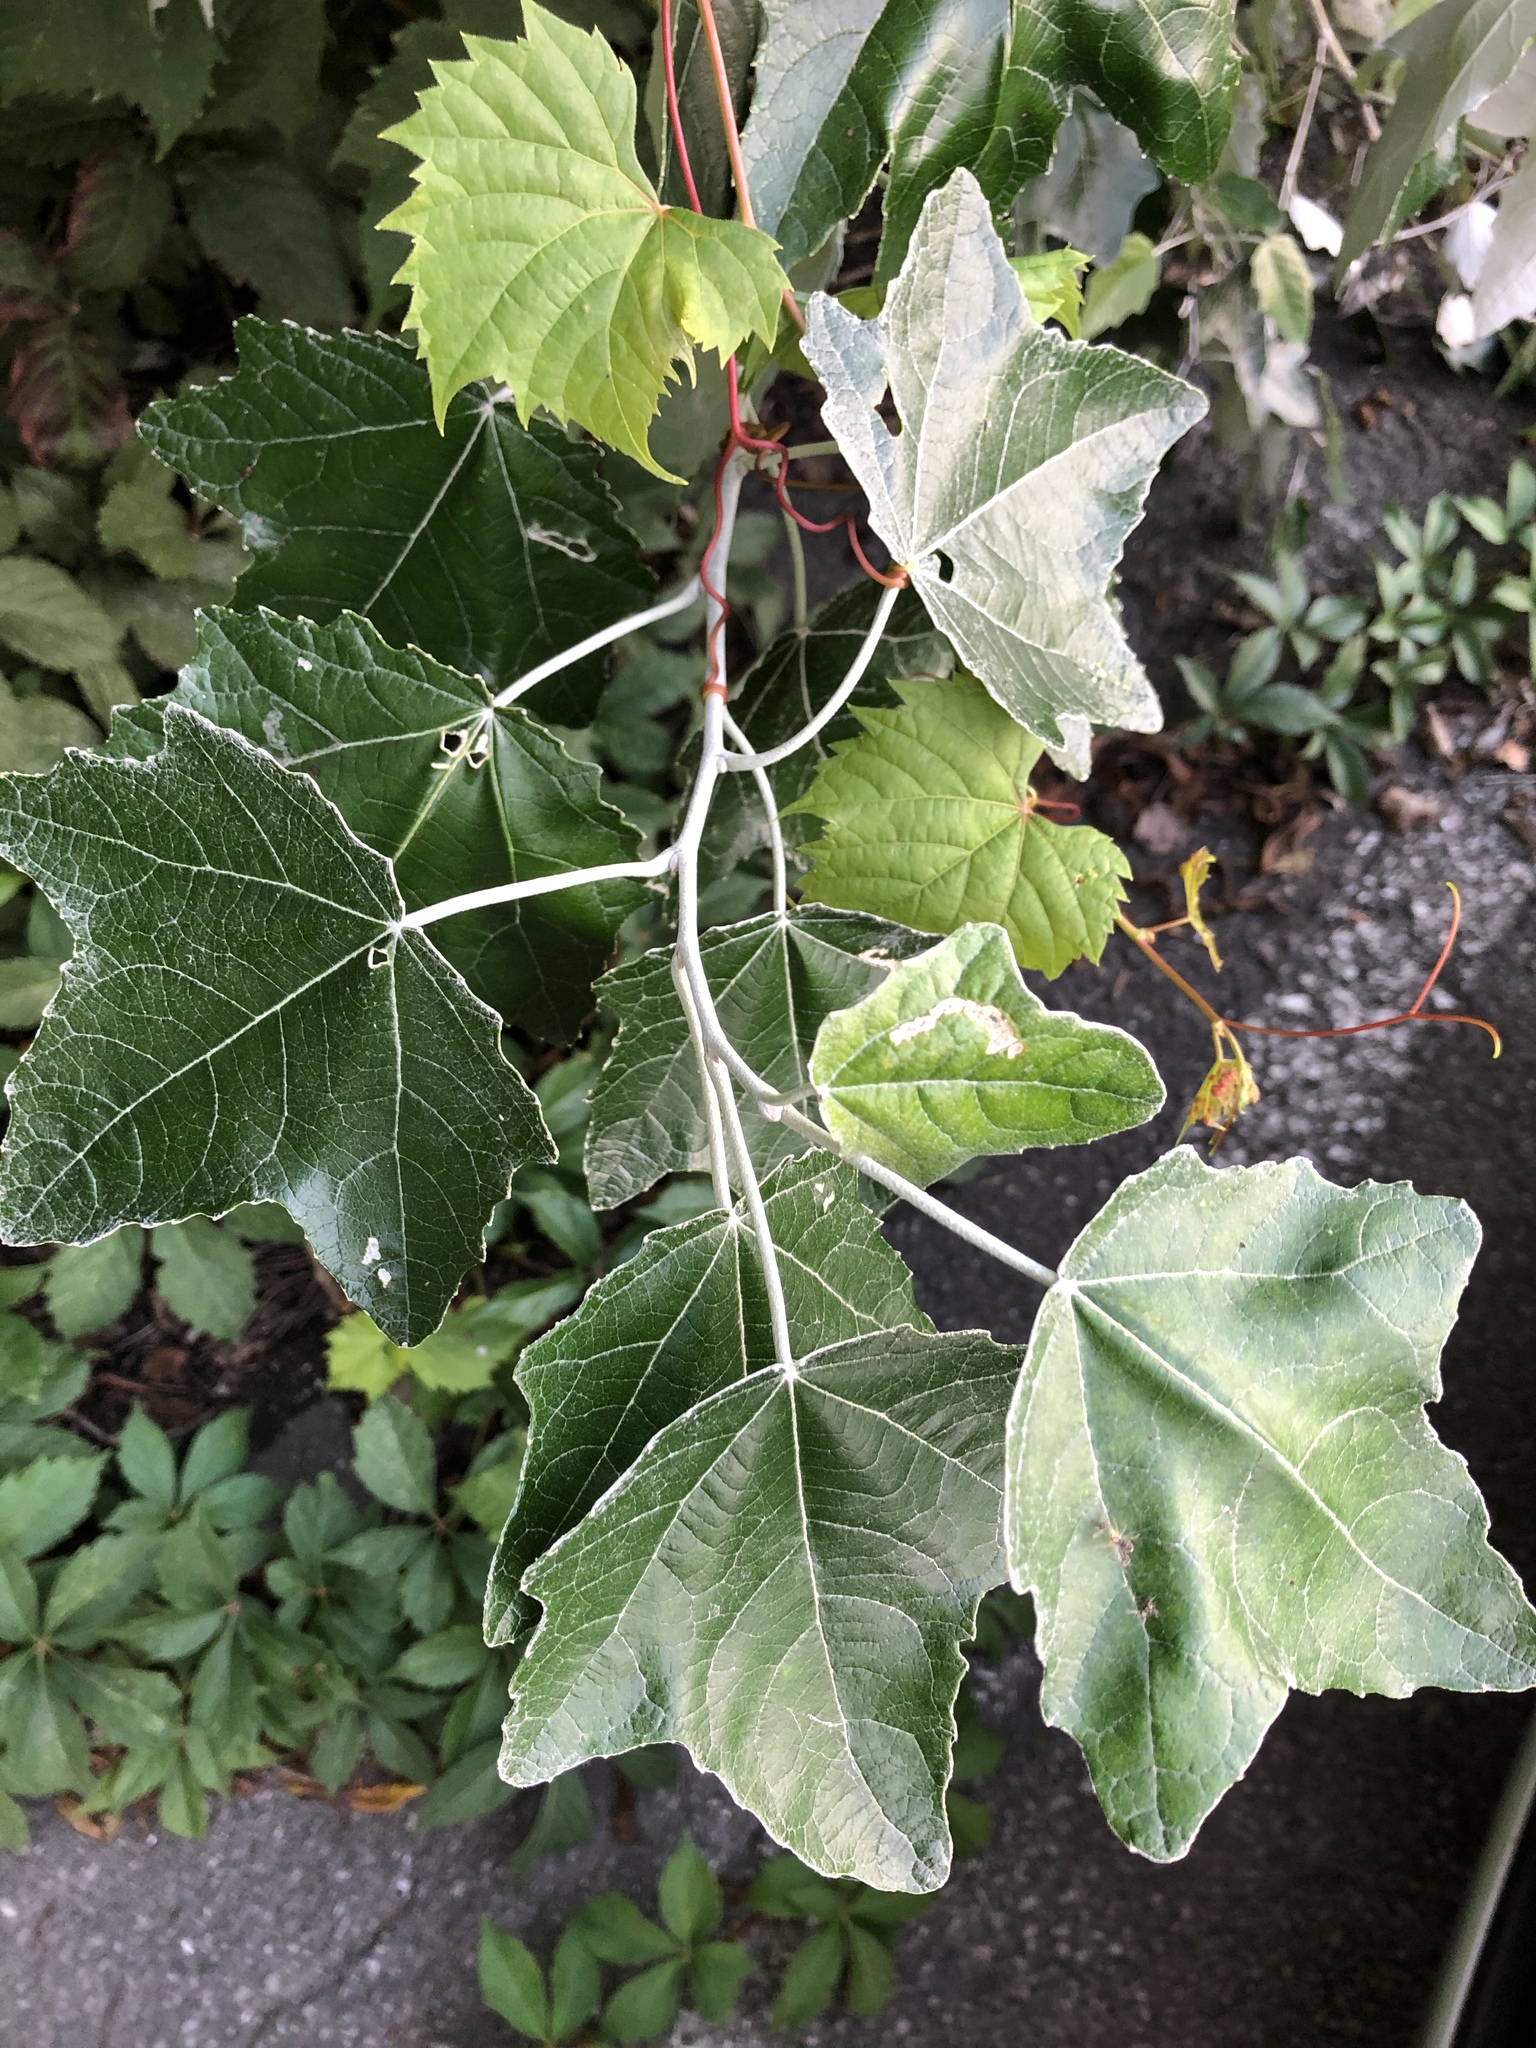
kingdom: Plantae
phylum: Tracheophyta
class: Magnoliopsida
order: Malpighiales
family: Salicaceae
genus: Populus
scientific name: Populus alba
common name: White poplar
